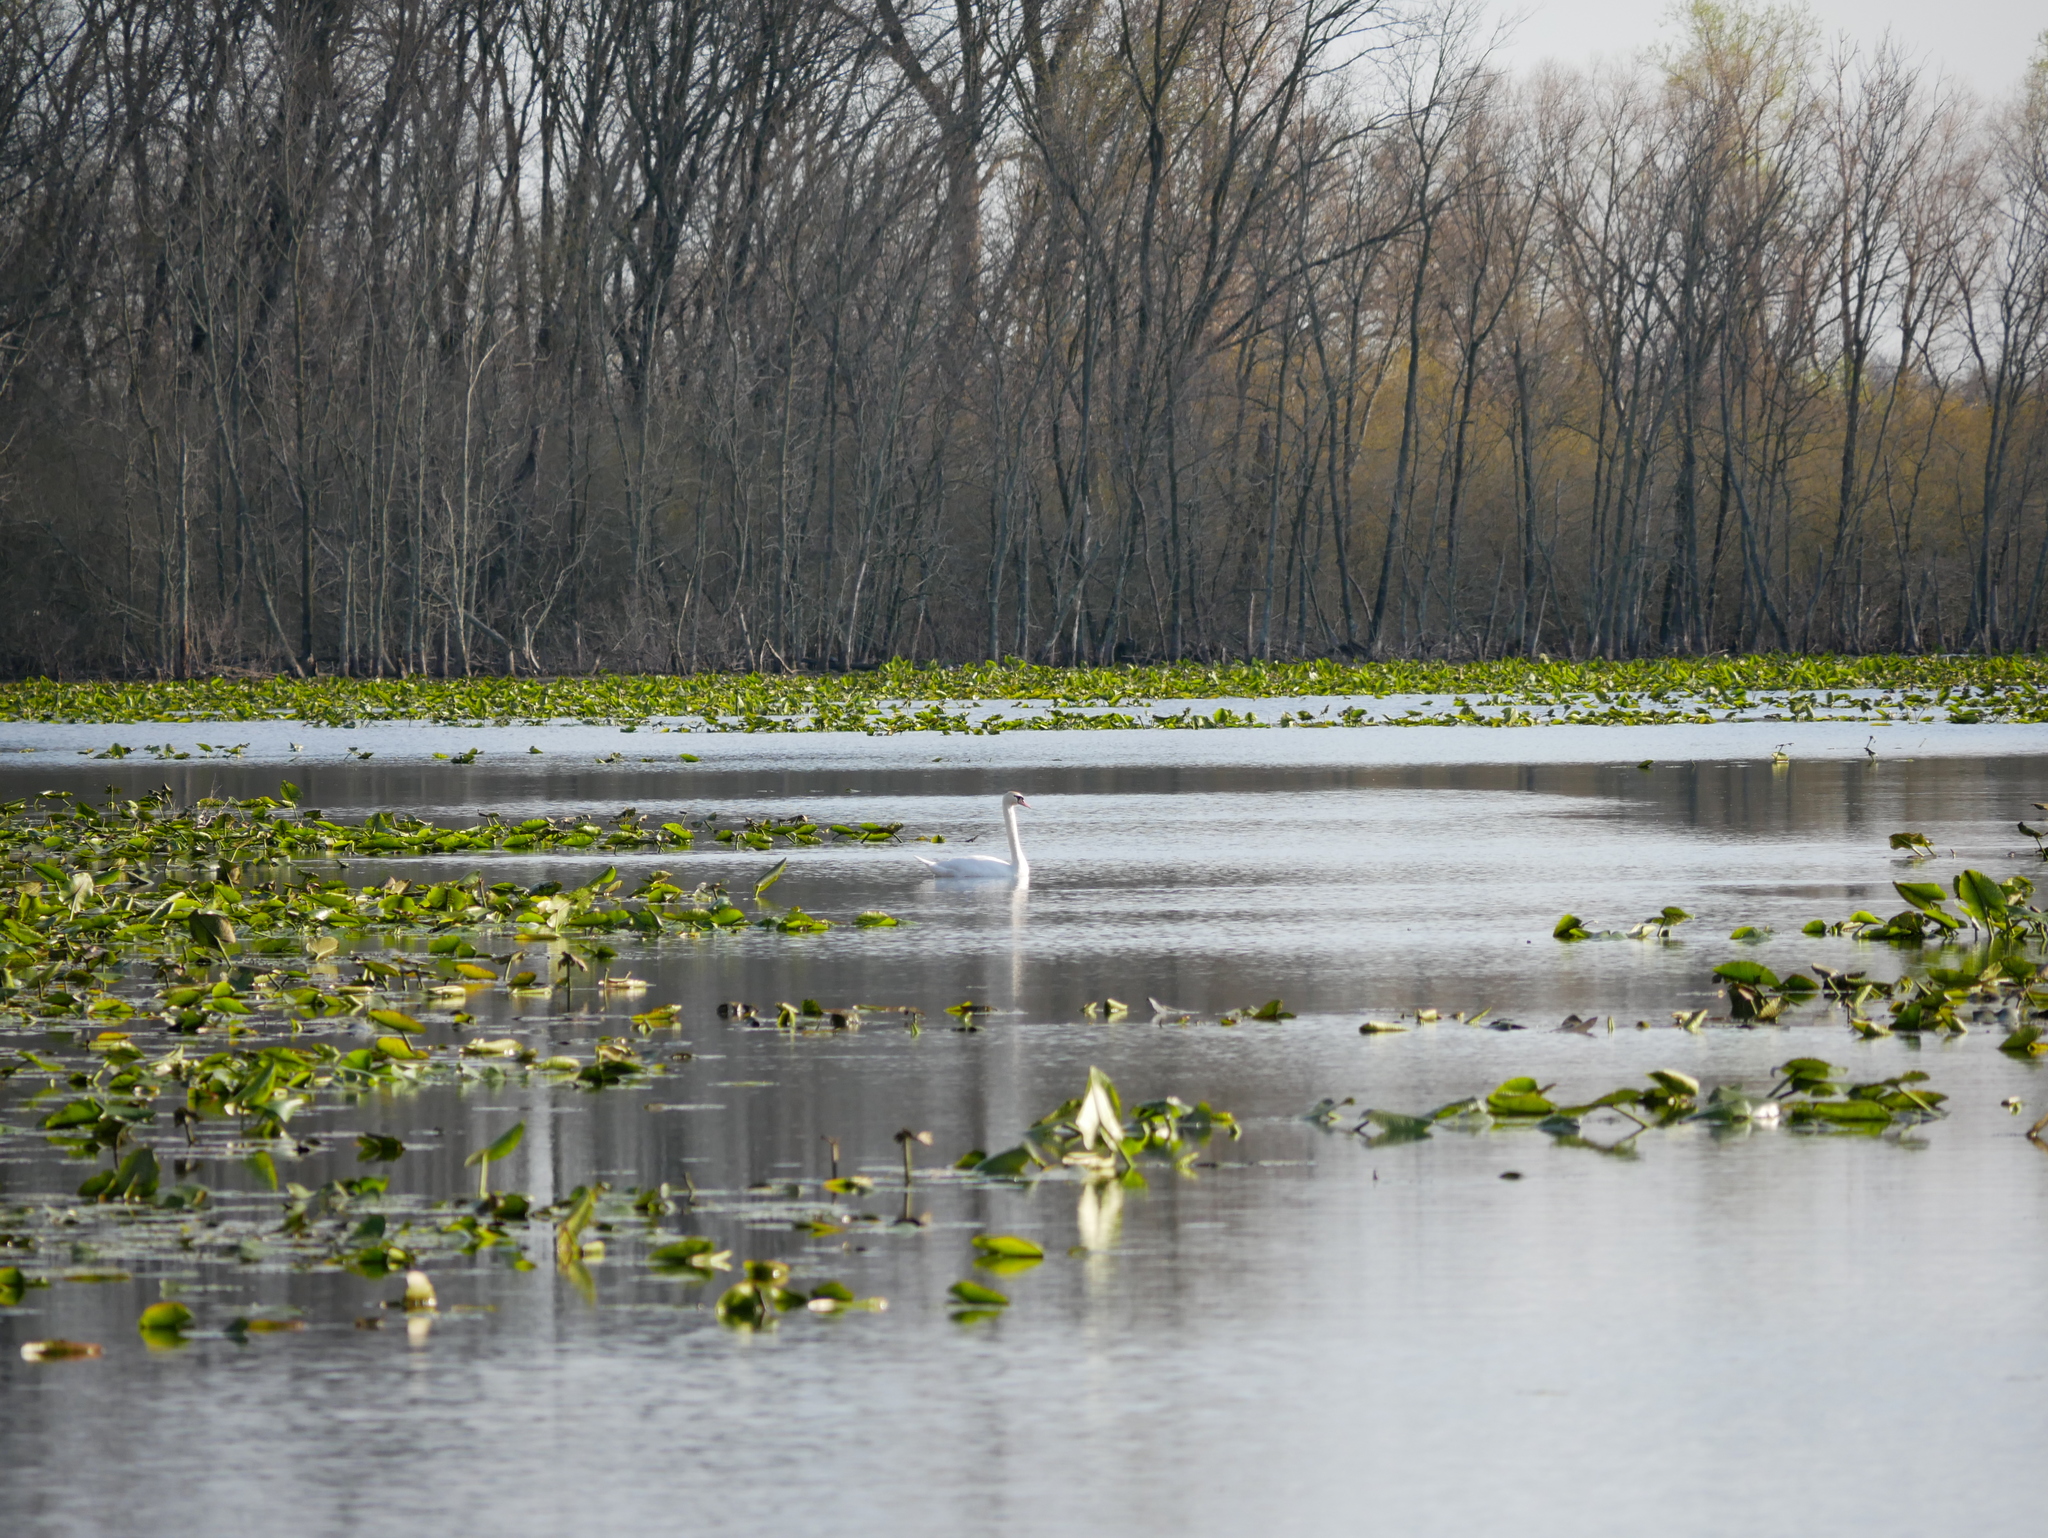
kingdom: Animalia
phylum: Chordata
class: Aves
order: Anseriformes
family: Anatidae
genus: Cygnus
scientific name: Cygnus olor
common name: Mute swan
